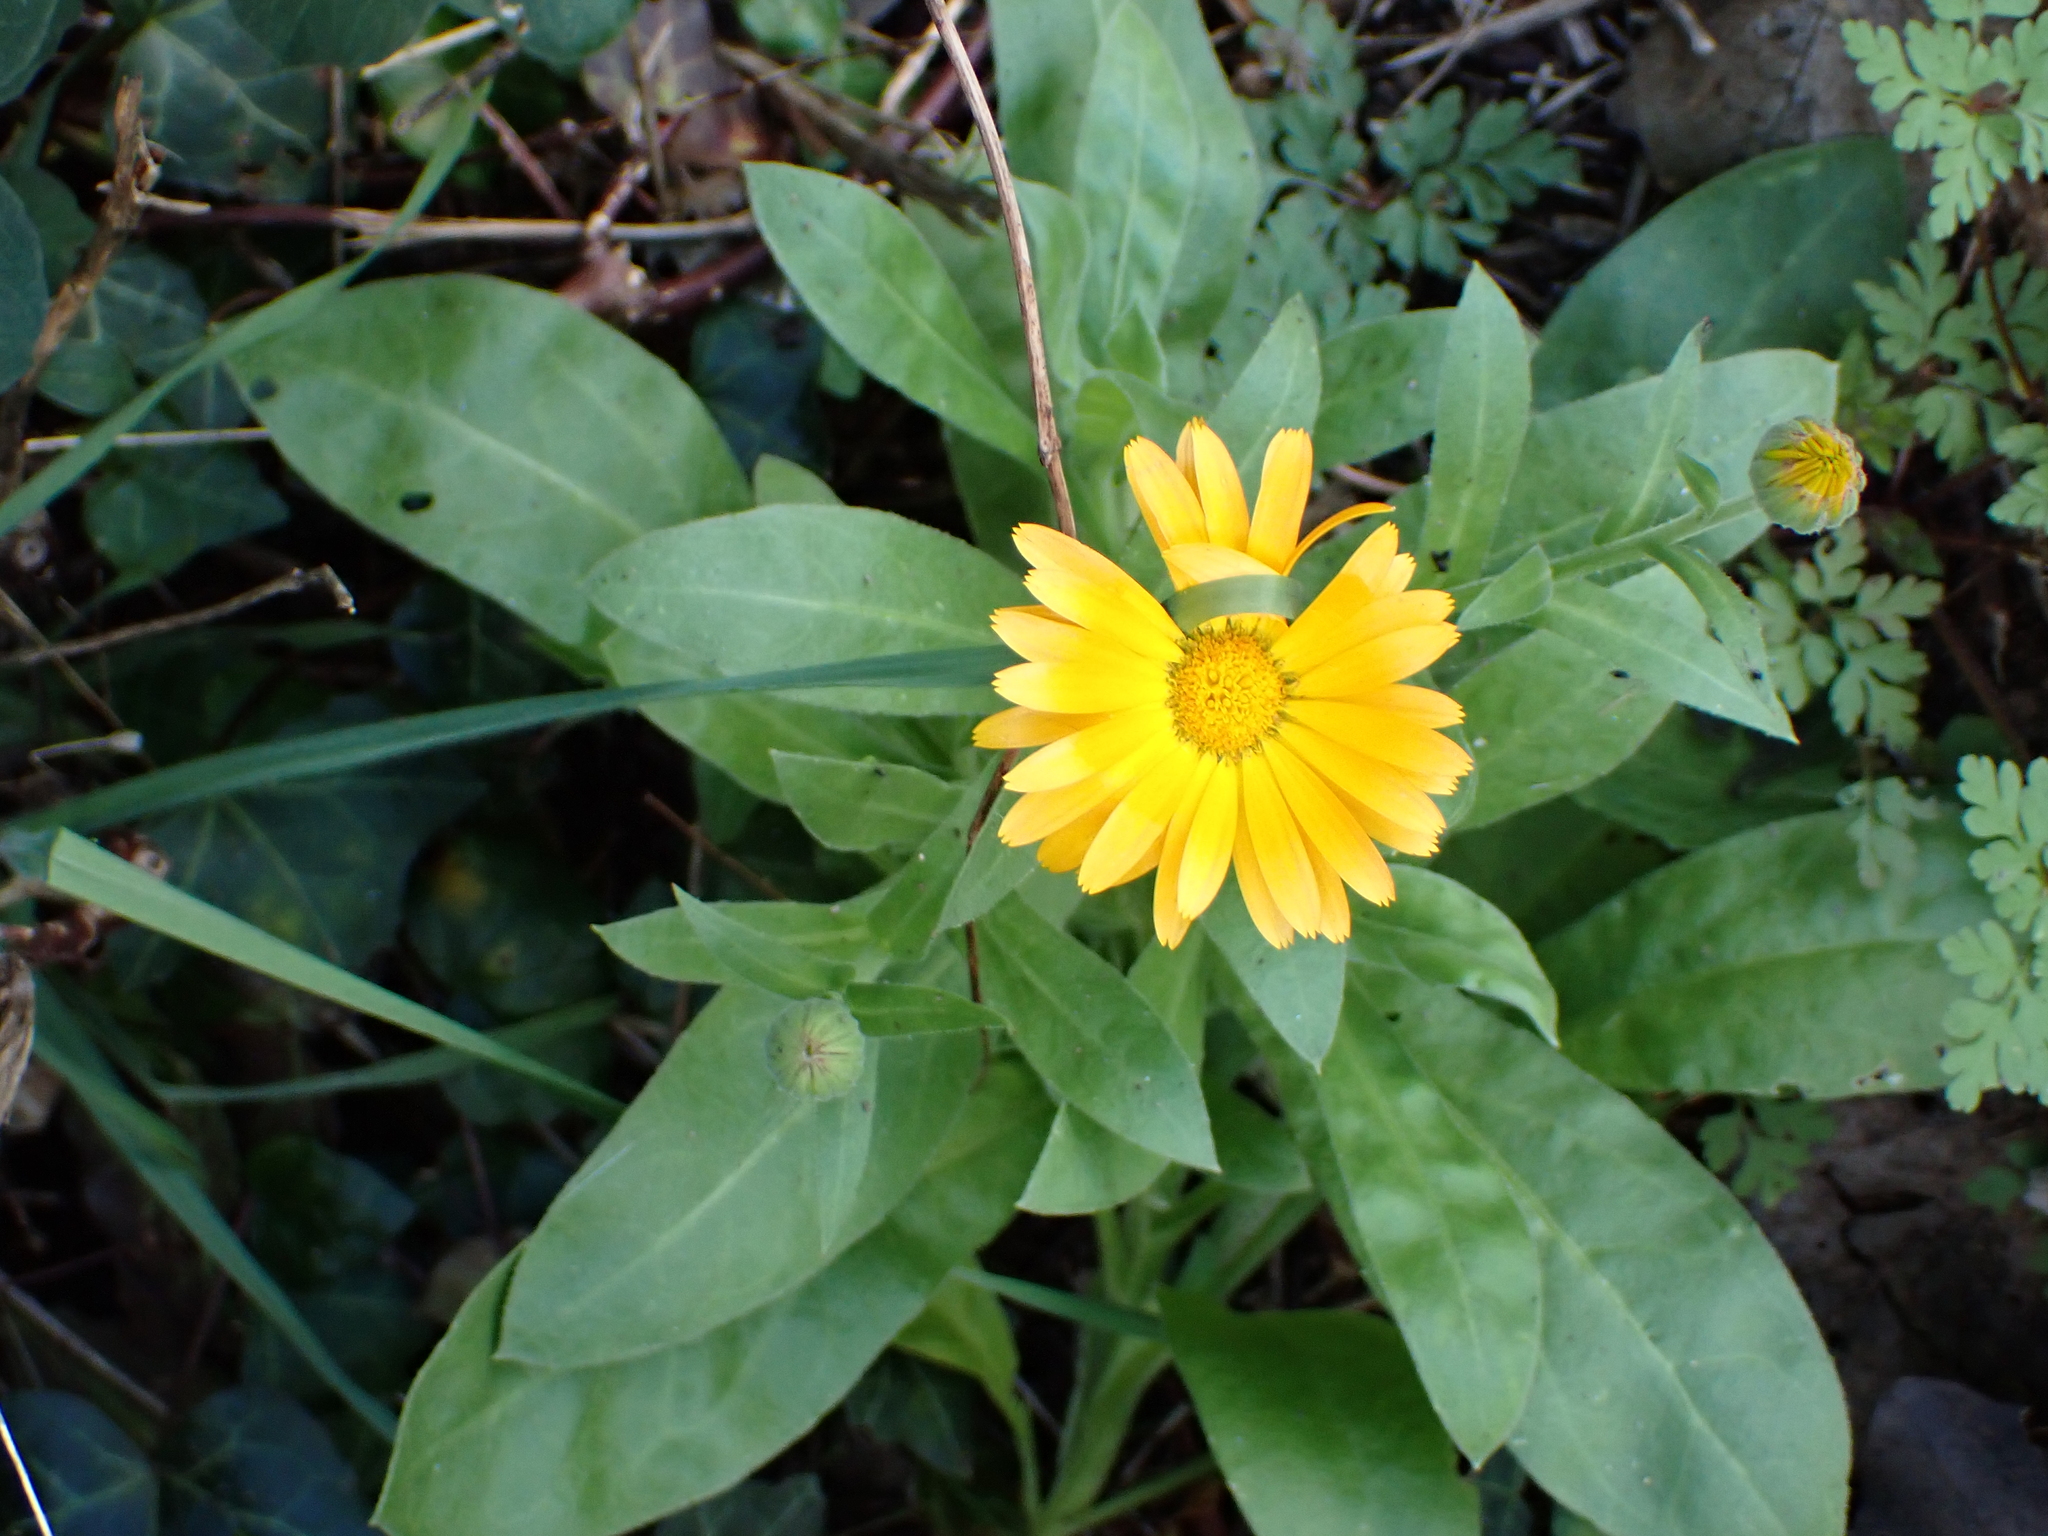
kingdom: Plantae
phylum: Tracheophyta
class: Magnoliopsida
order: Asterales
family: Asteraceae
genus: Calendula
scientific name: Calendula officinalis
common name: Pot marigold
